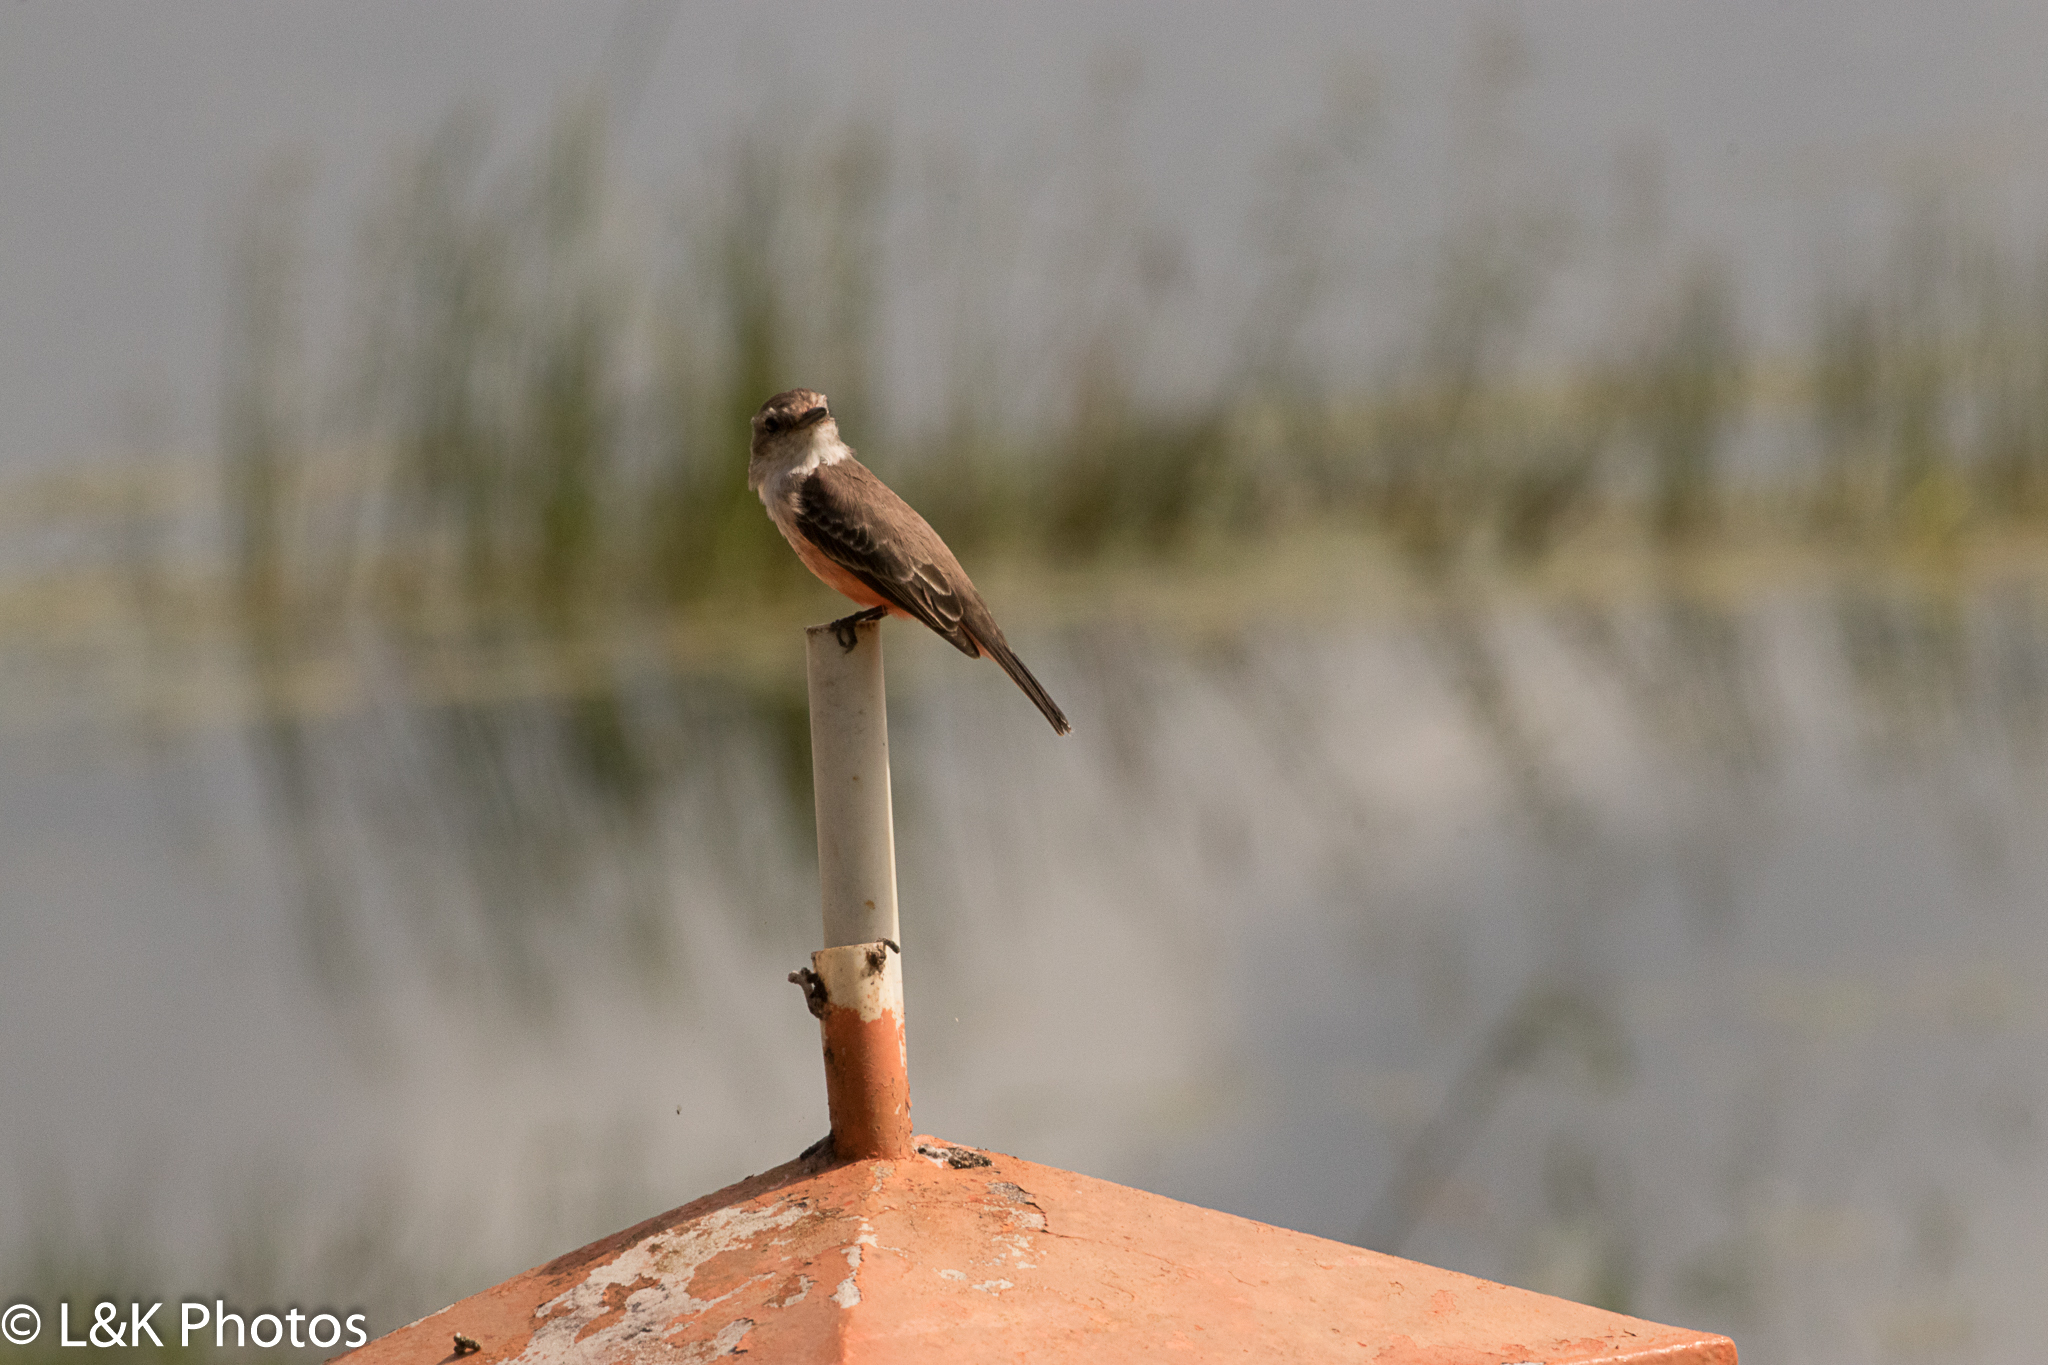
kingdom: Animalia
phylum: Chordata
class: Aves
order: Passeriformes
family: Tyrannidae
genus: Pyrocephalus
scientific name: Pyrocephalus rubinus
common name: Vermilion flycatcher
